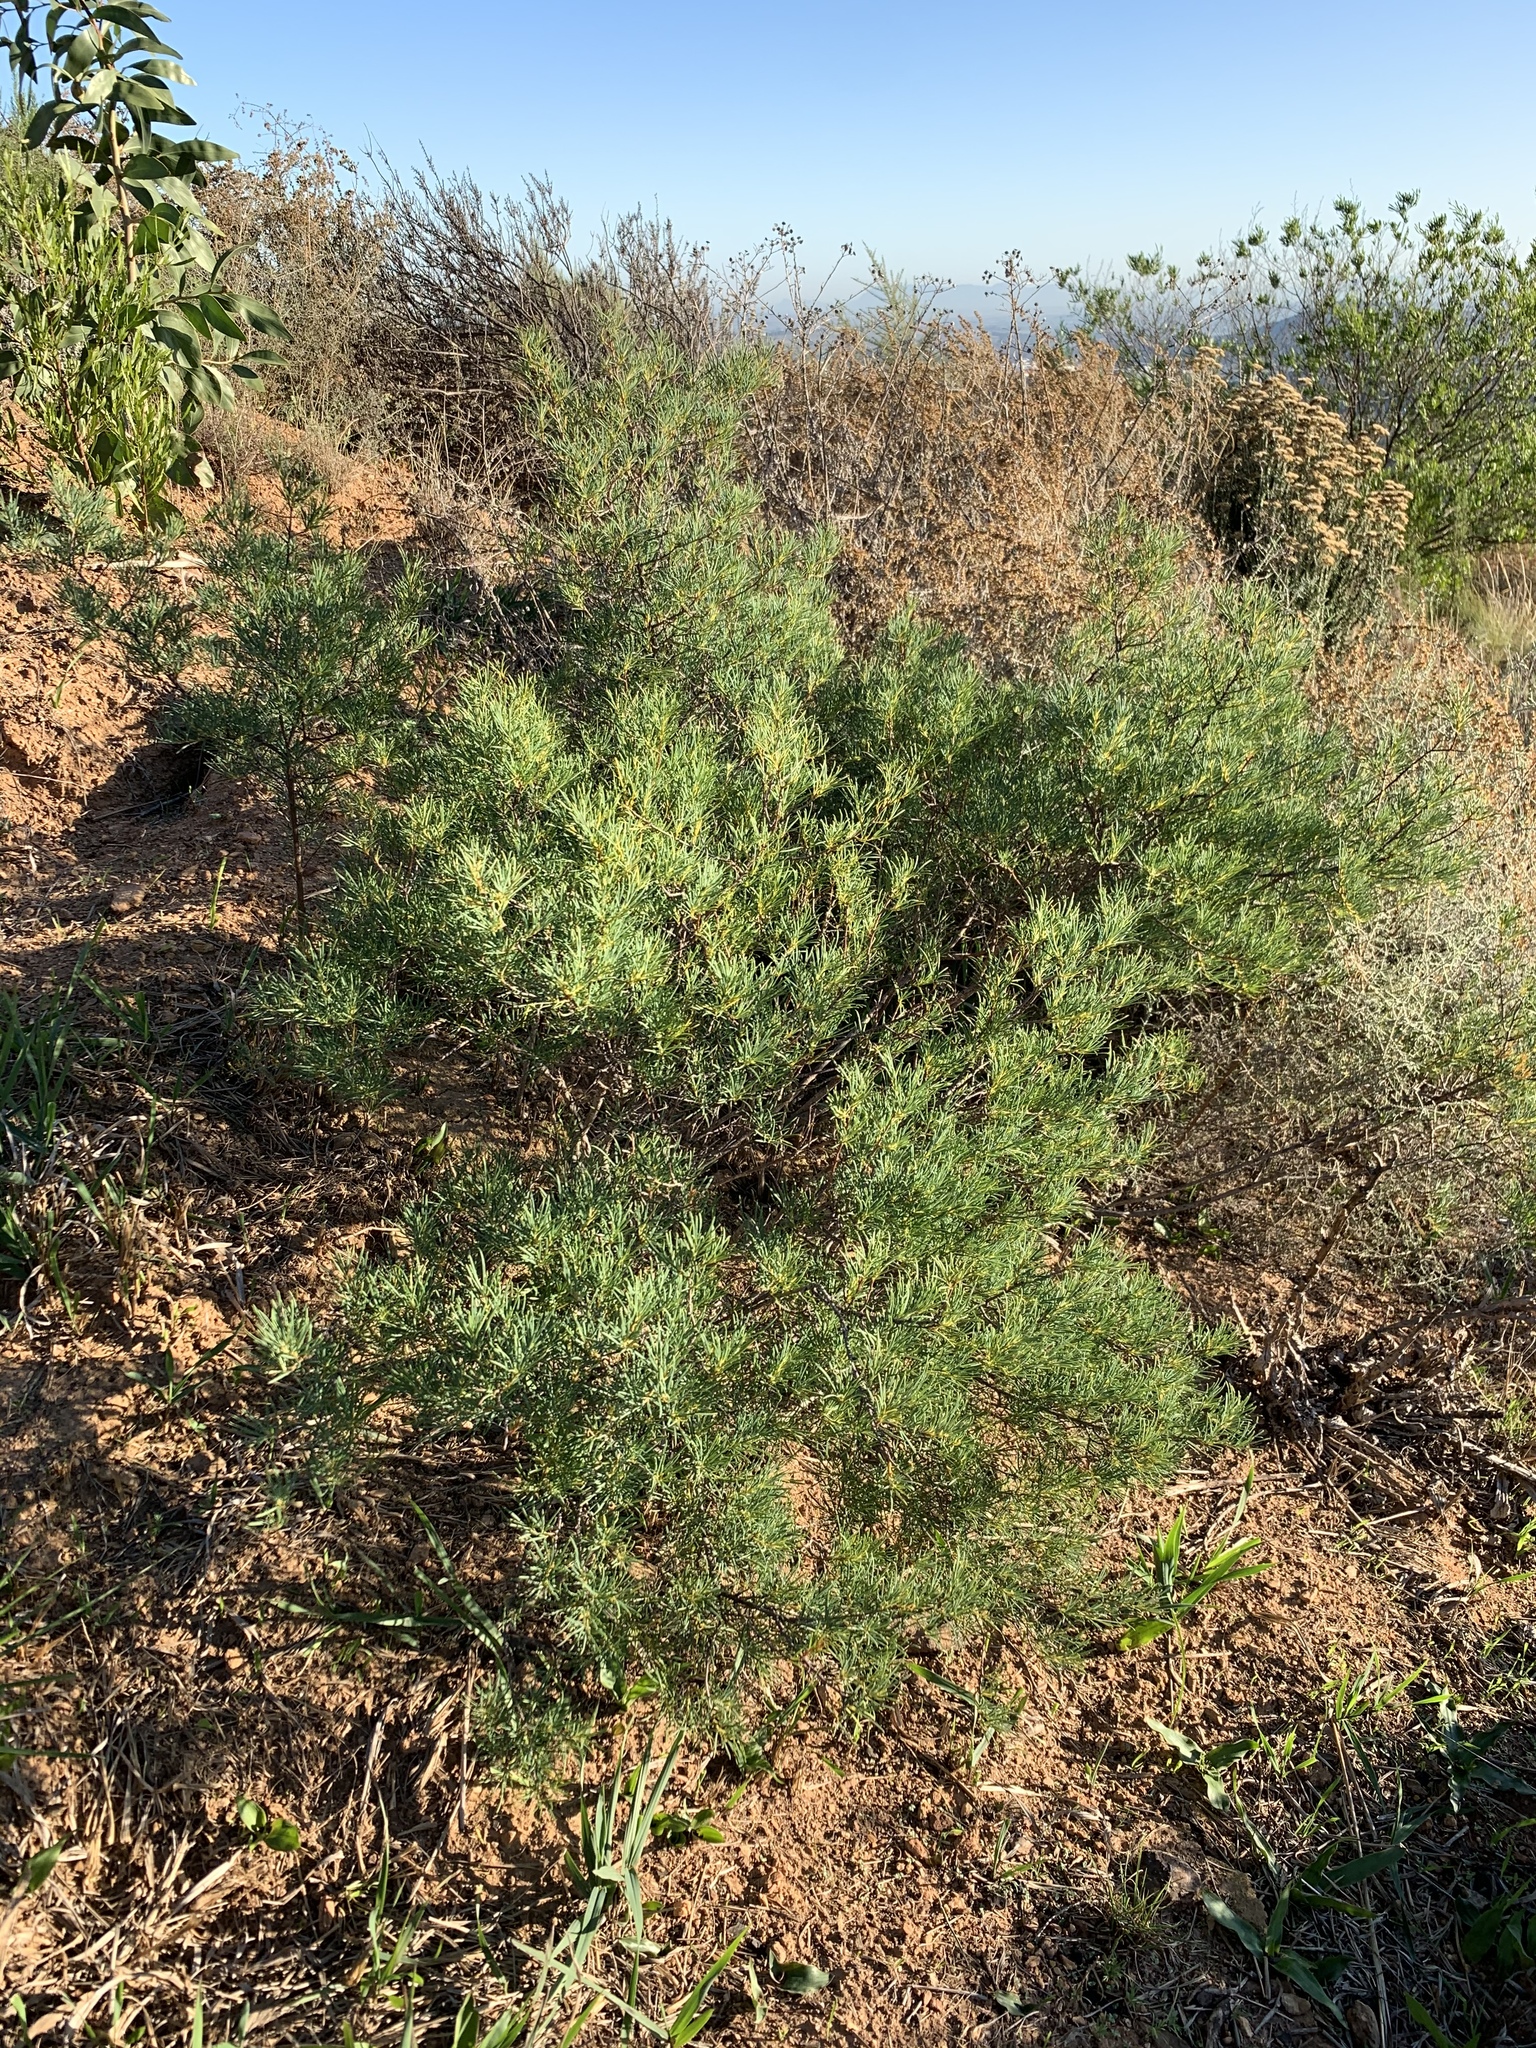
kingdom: Plantae
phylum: Tracheophyta
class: Magnoliopsida
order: Sapindales
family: Anacardiaceae
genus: Searsia
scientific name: Searsia rosmarinifolia
